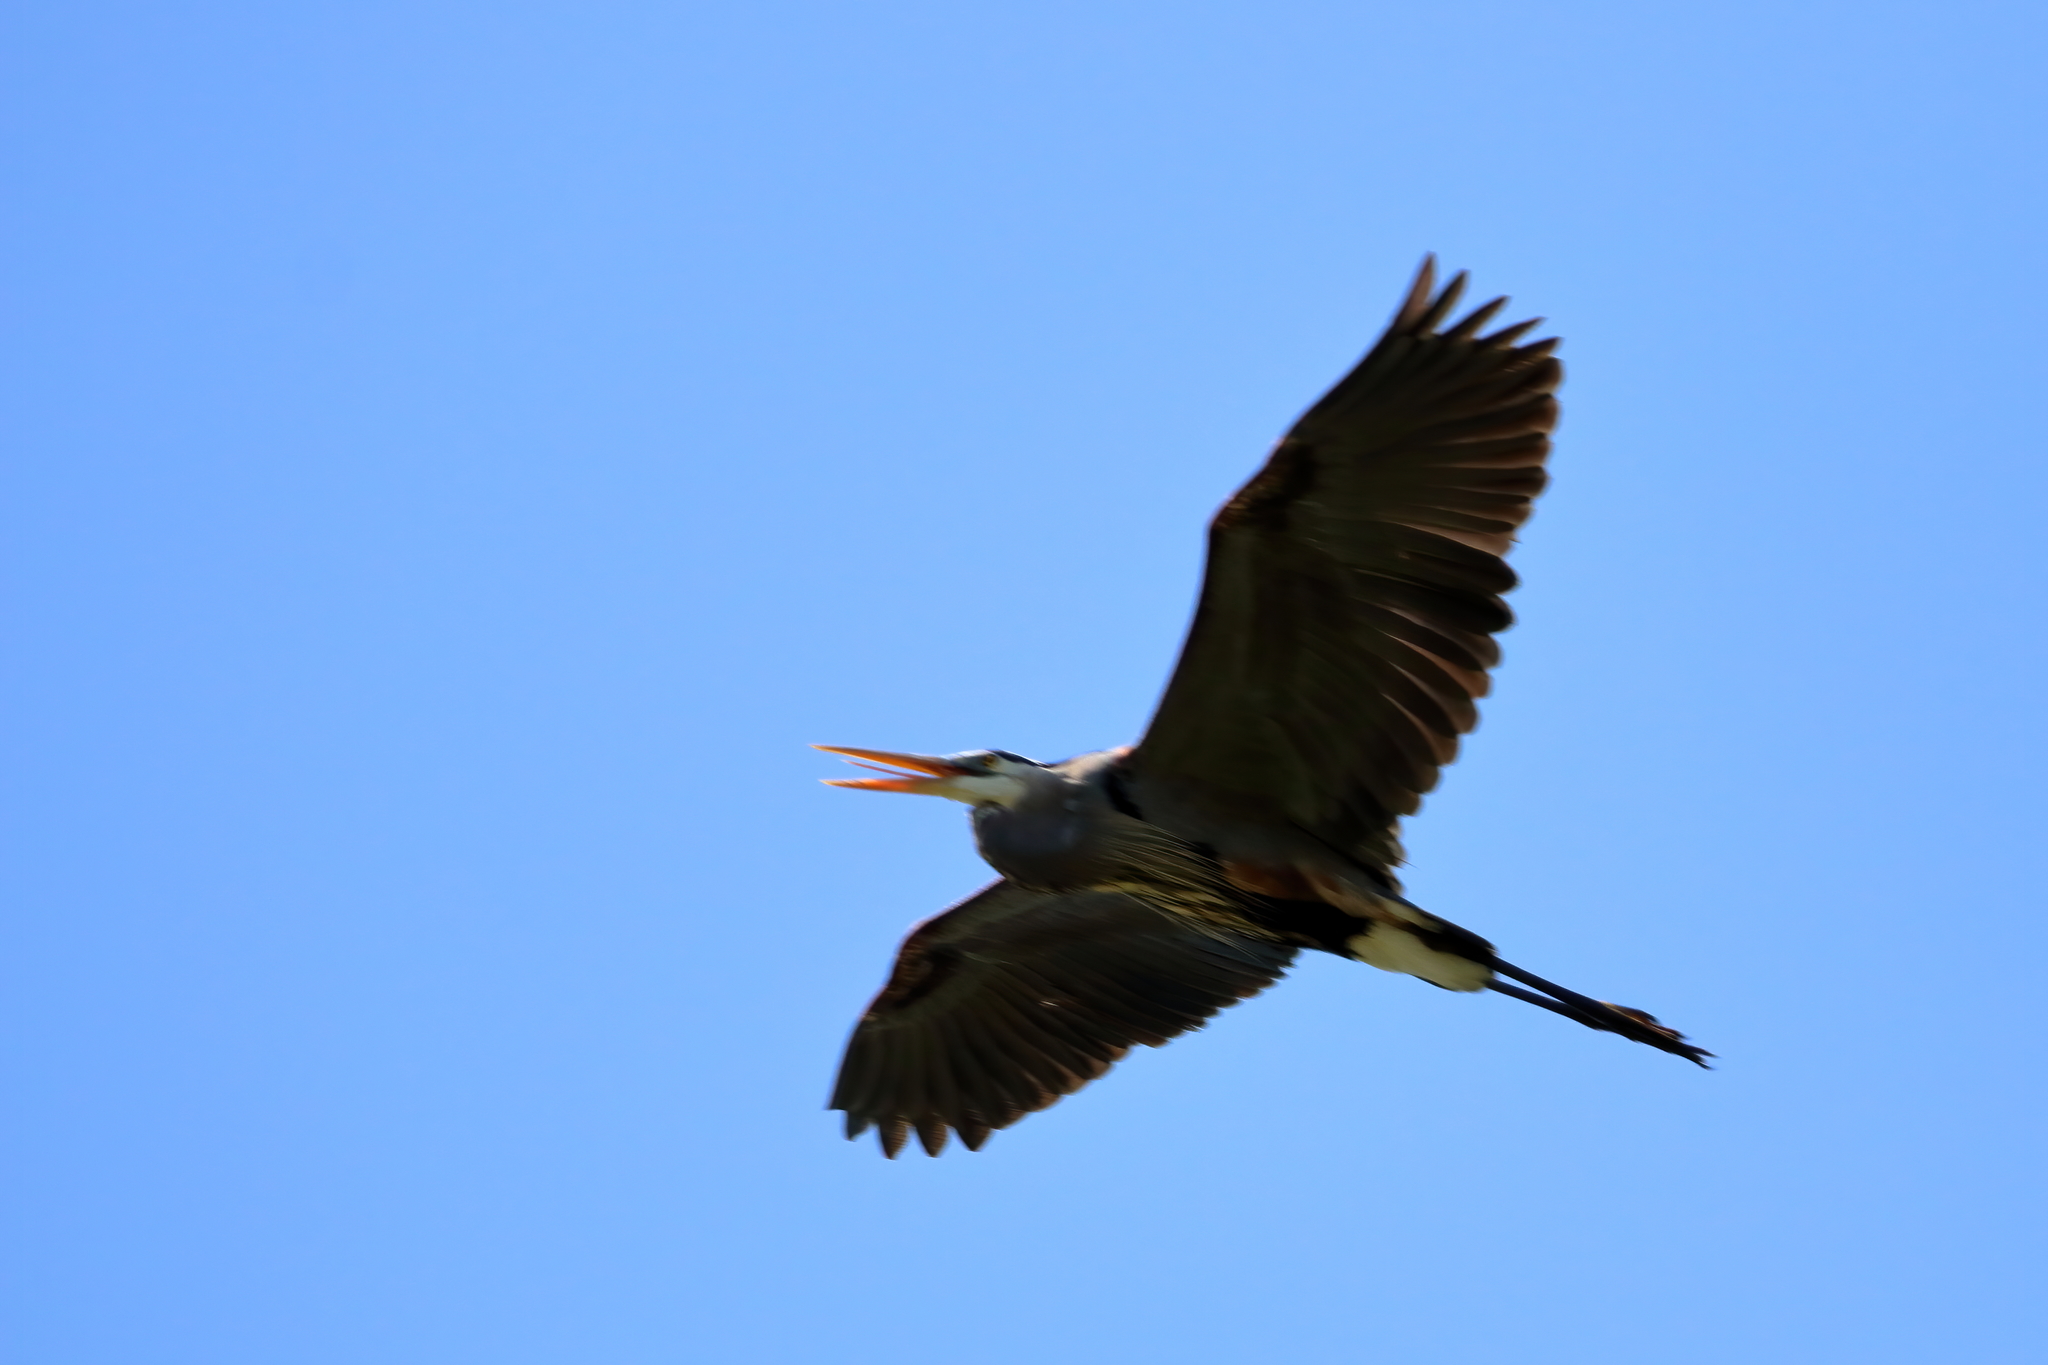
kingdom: Animalia
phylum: Chordata
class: Aves
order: Pelecaniformes
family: Ardeidae
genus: Ardea
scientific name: Ardea herodias
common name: Great blue heron
